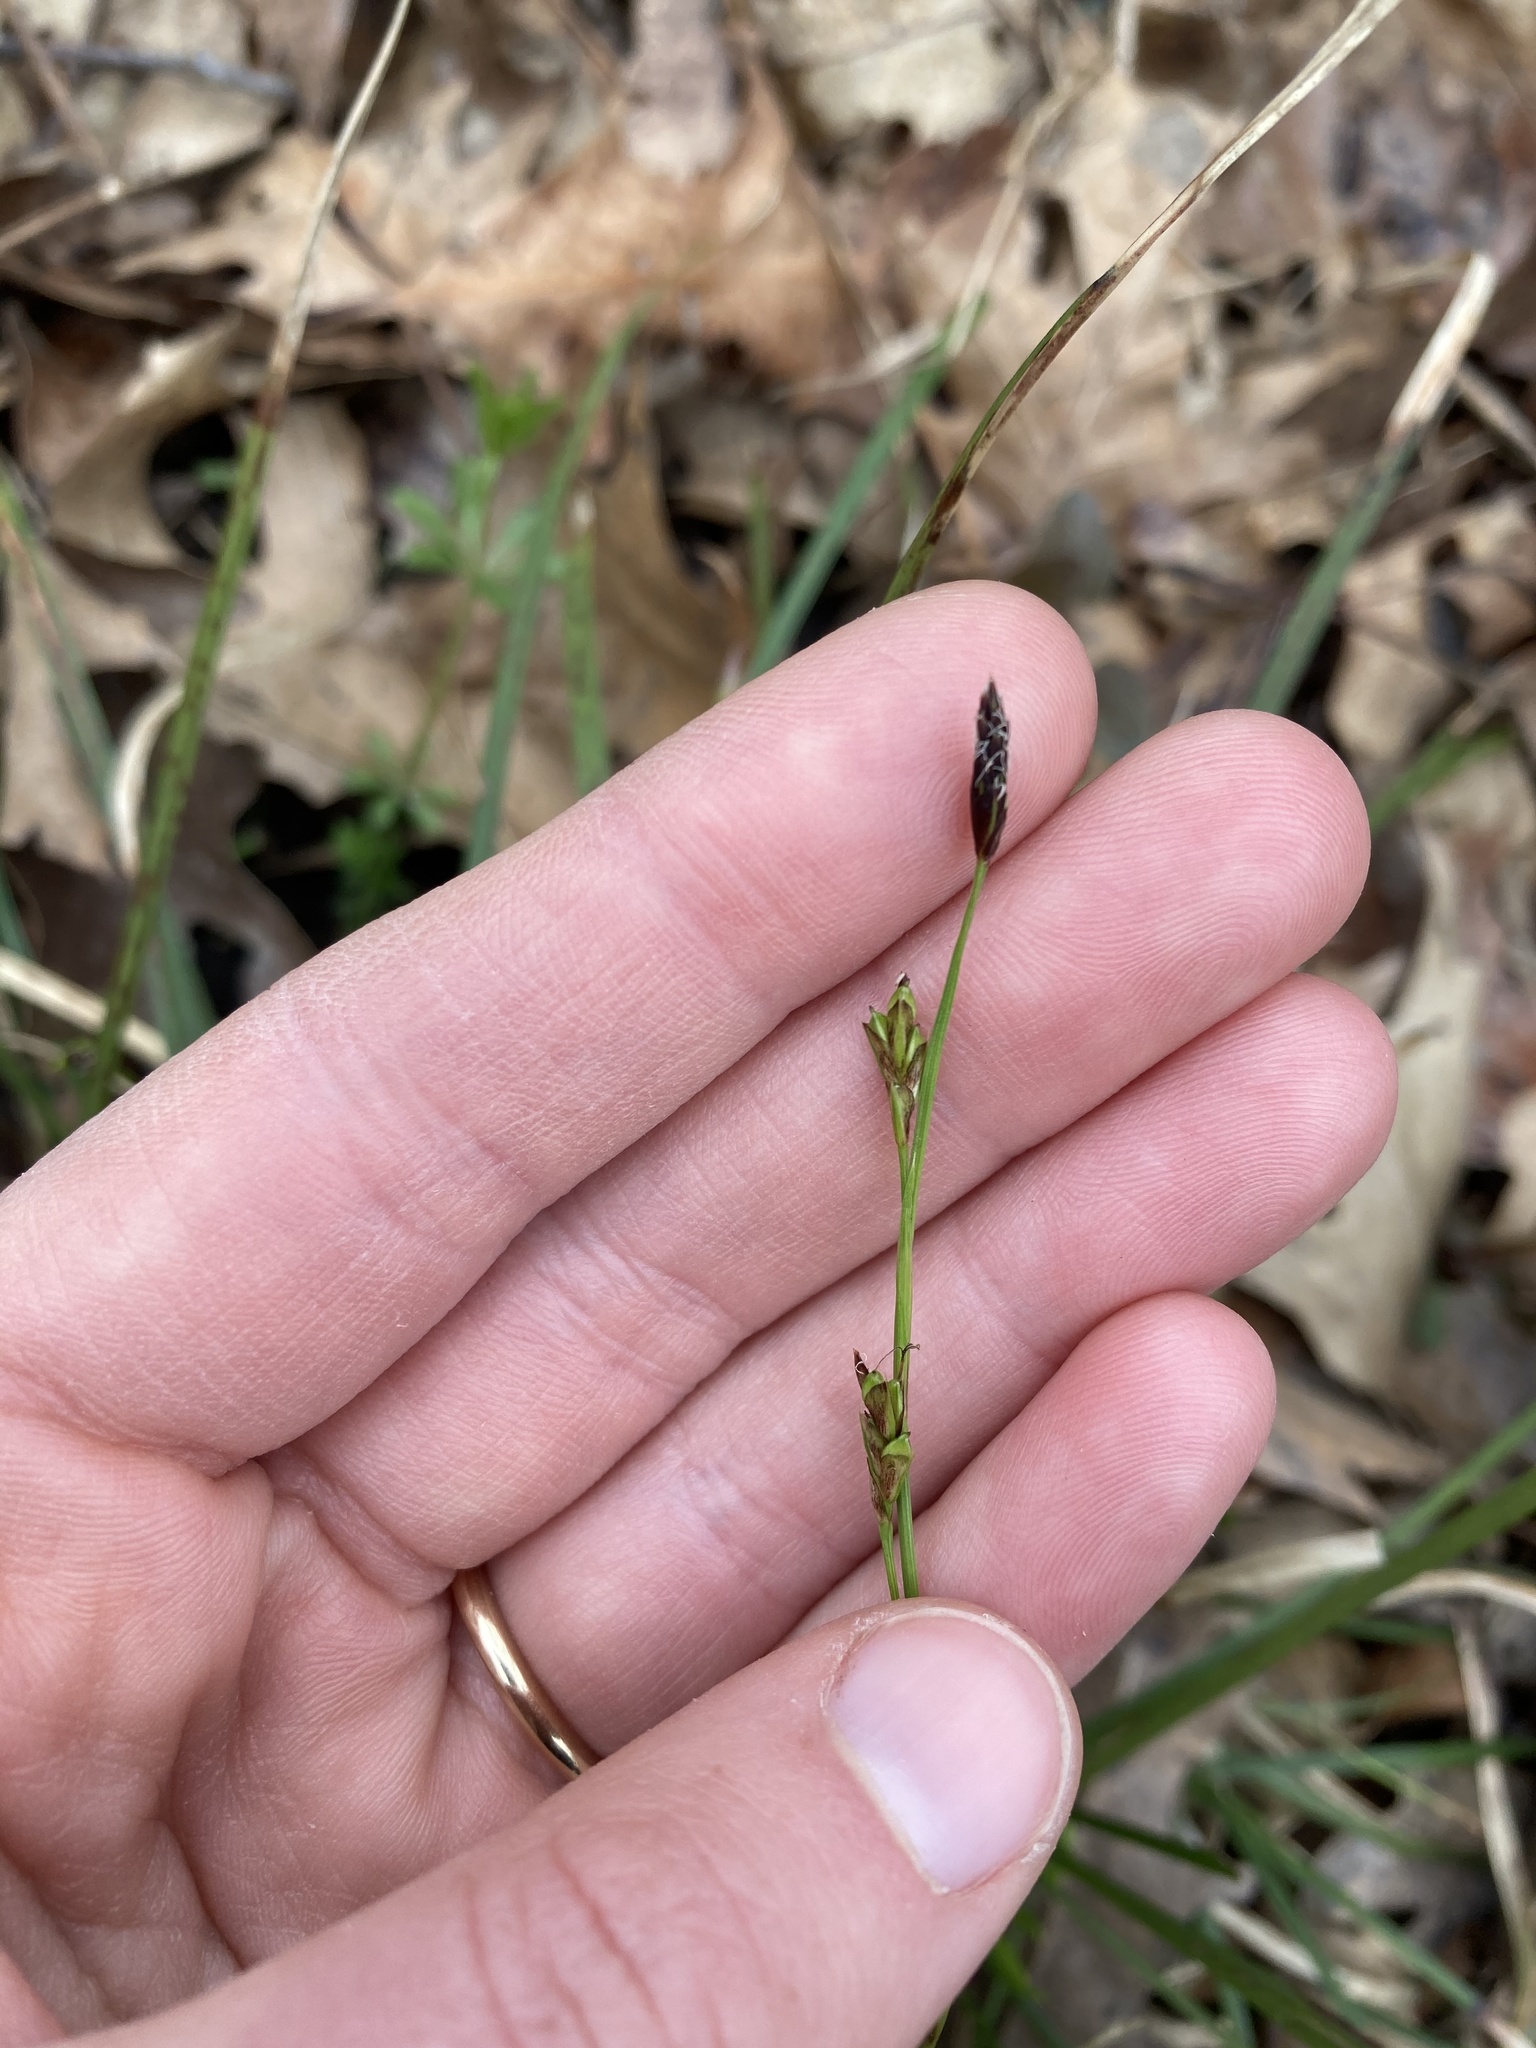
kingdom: Plantae
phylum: Tracheophyta
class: Liliopsida
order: Poales
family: Cyperaceae
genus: Carex
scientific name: Carex pedunculata
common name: Pedunculate sedge
